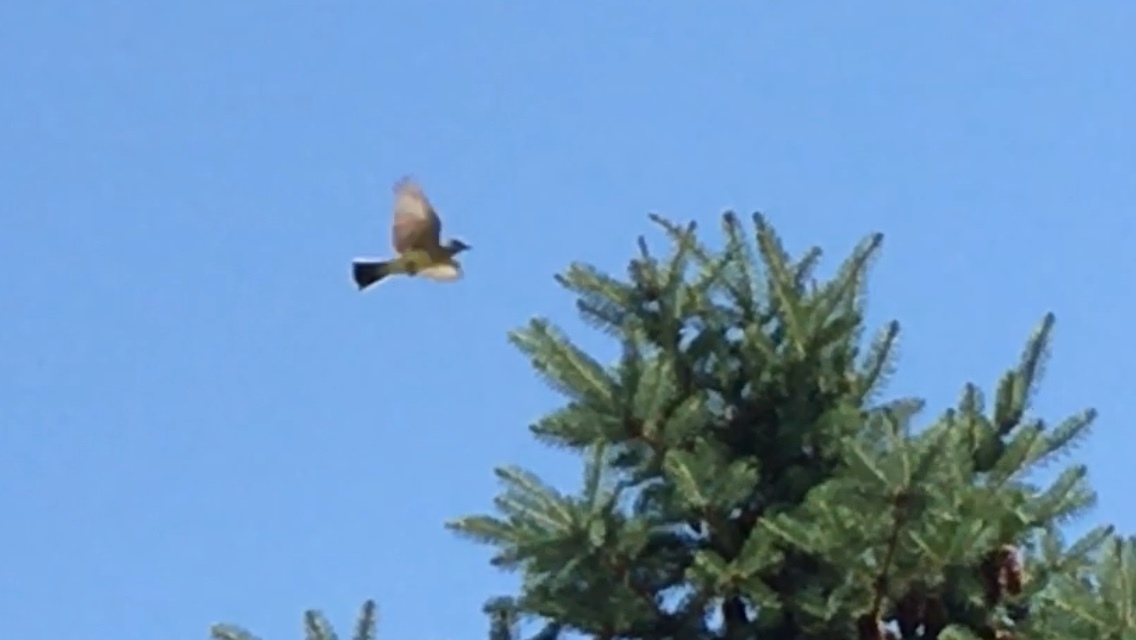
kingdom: Animalia
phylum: Chordata
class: Aves
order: Passeriformes
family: Tyrannidae
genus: Tyrannus
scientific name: Tyrannus verticalis
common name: Western kingbird
